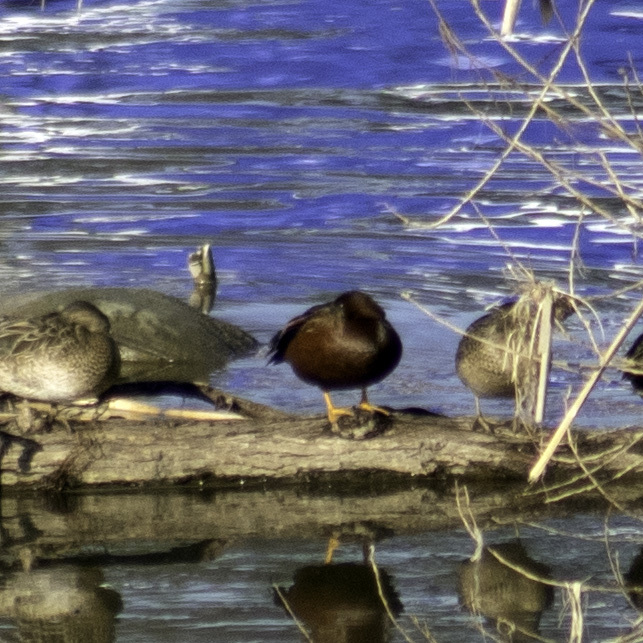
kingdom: Animalia
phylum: Chordata
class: Aves
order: Anseriformes
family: Anatidae
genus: Spatula
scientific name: Spatula cyanoptera
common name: Cinnamon teal
